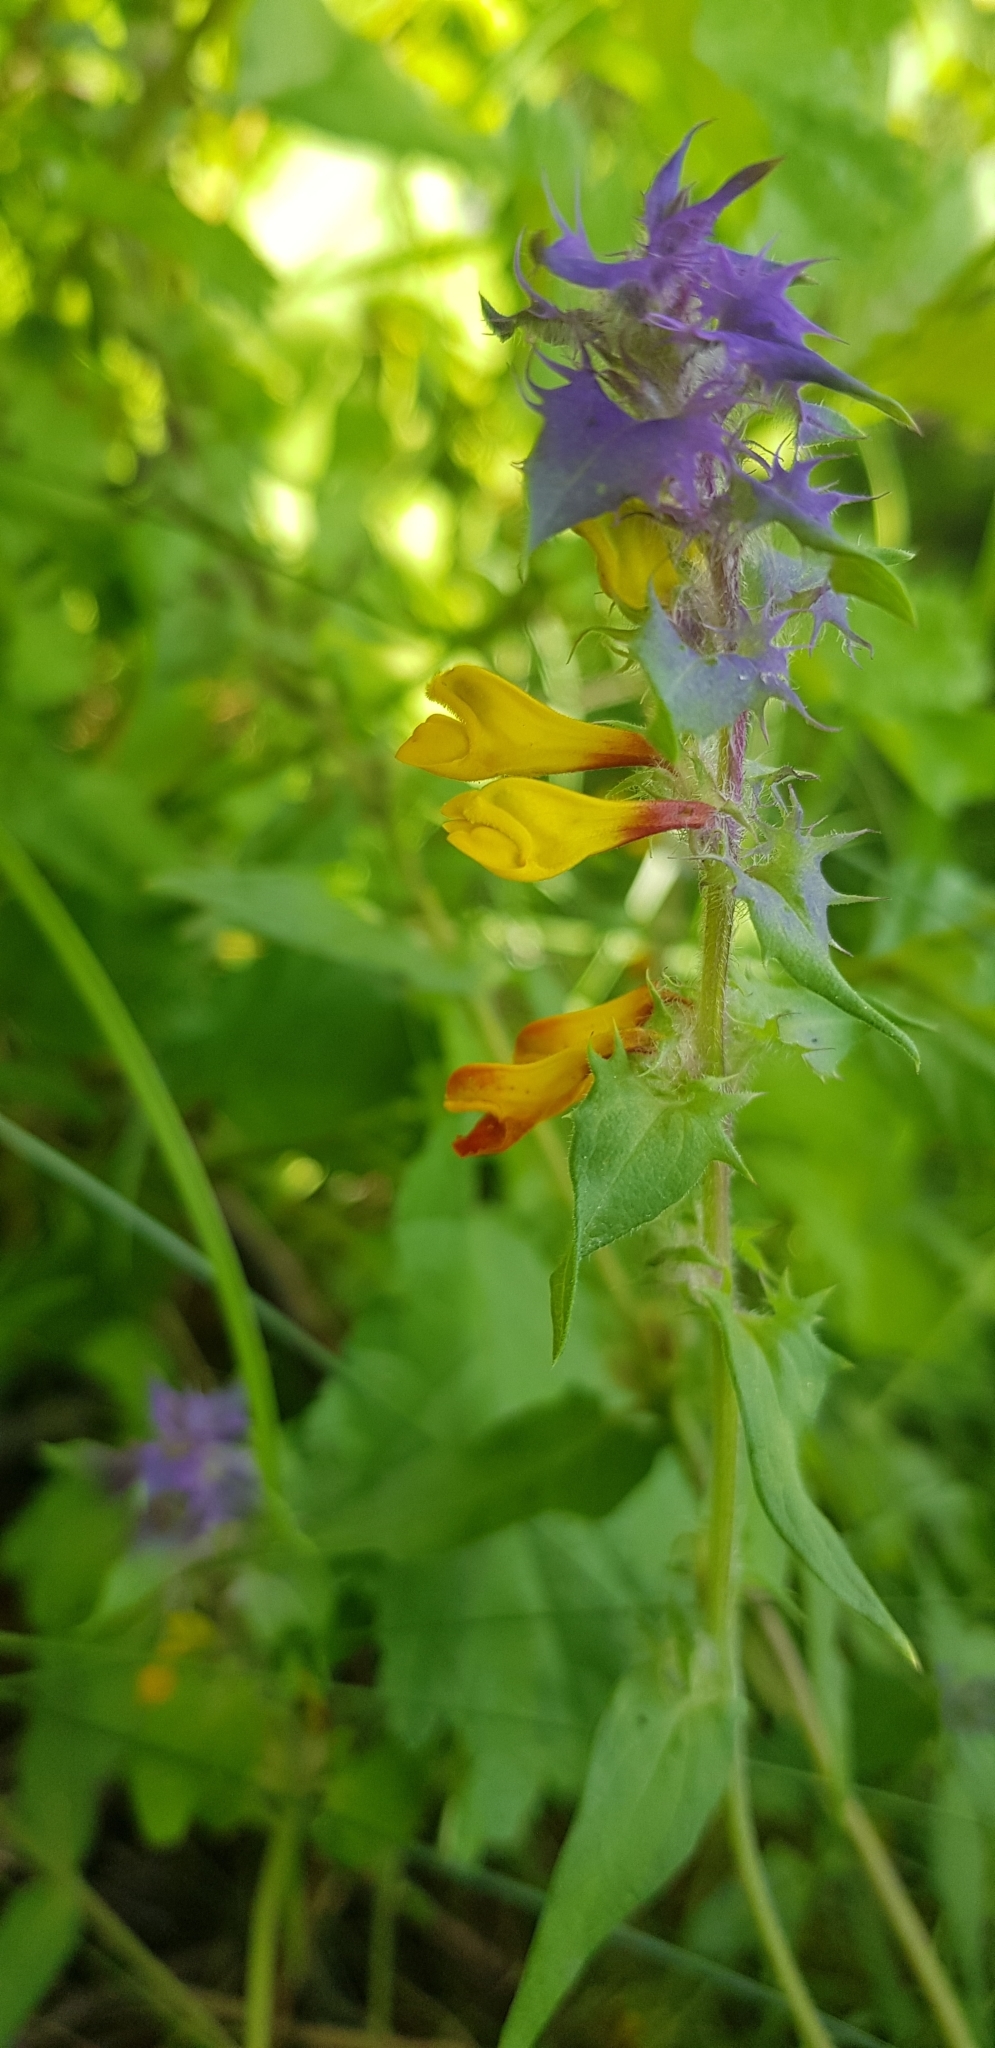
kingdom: Plantae
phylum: Tracheophyta
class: Magnoliopsida
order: Lamiales
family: Orobanchaceae
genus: Melampyrum
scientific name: Melampyrum nemorosum
